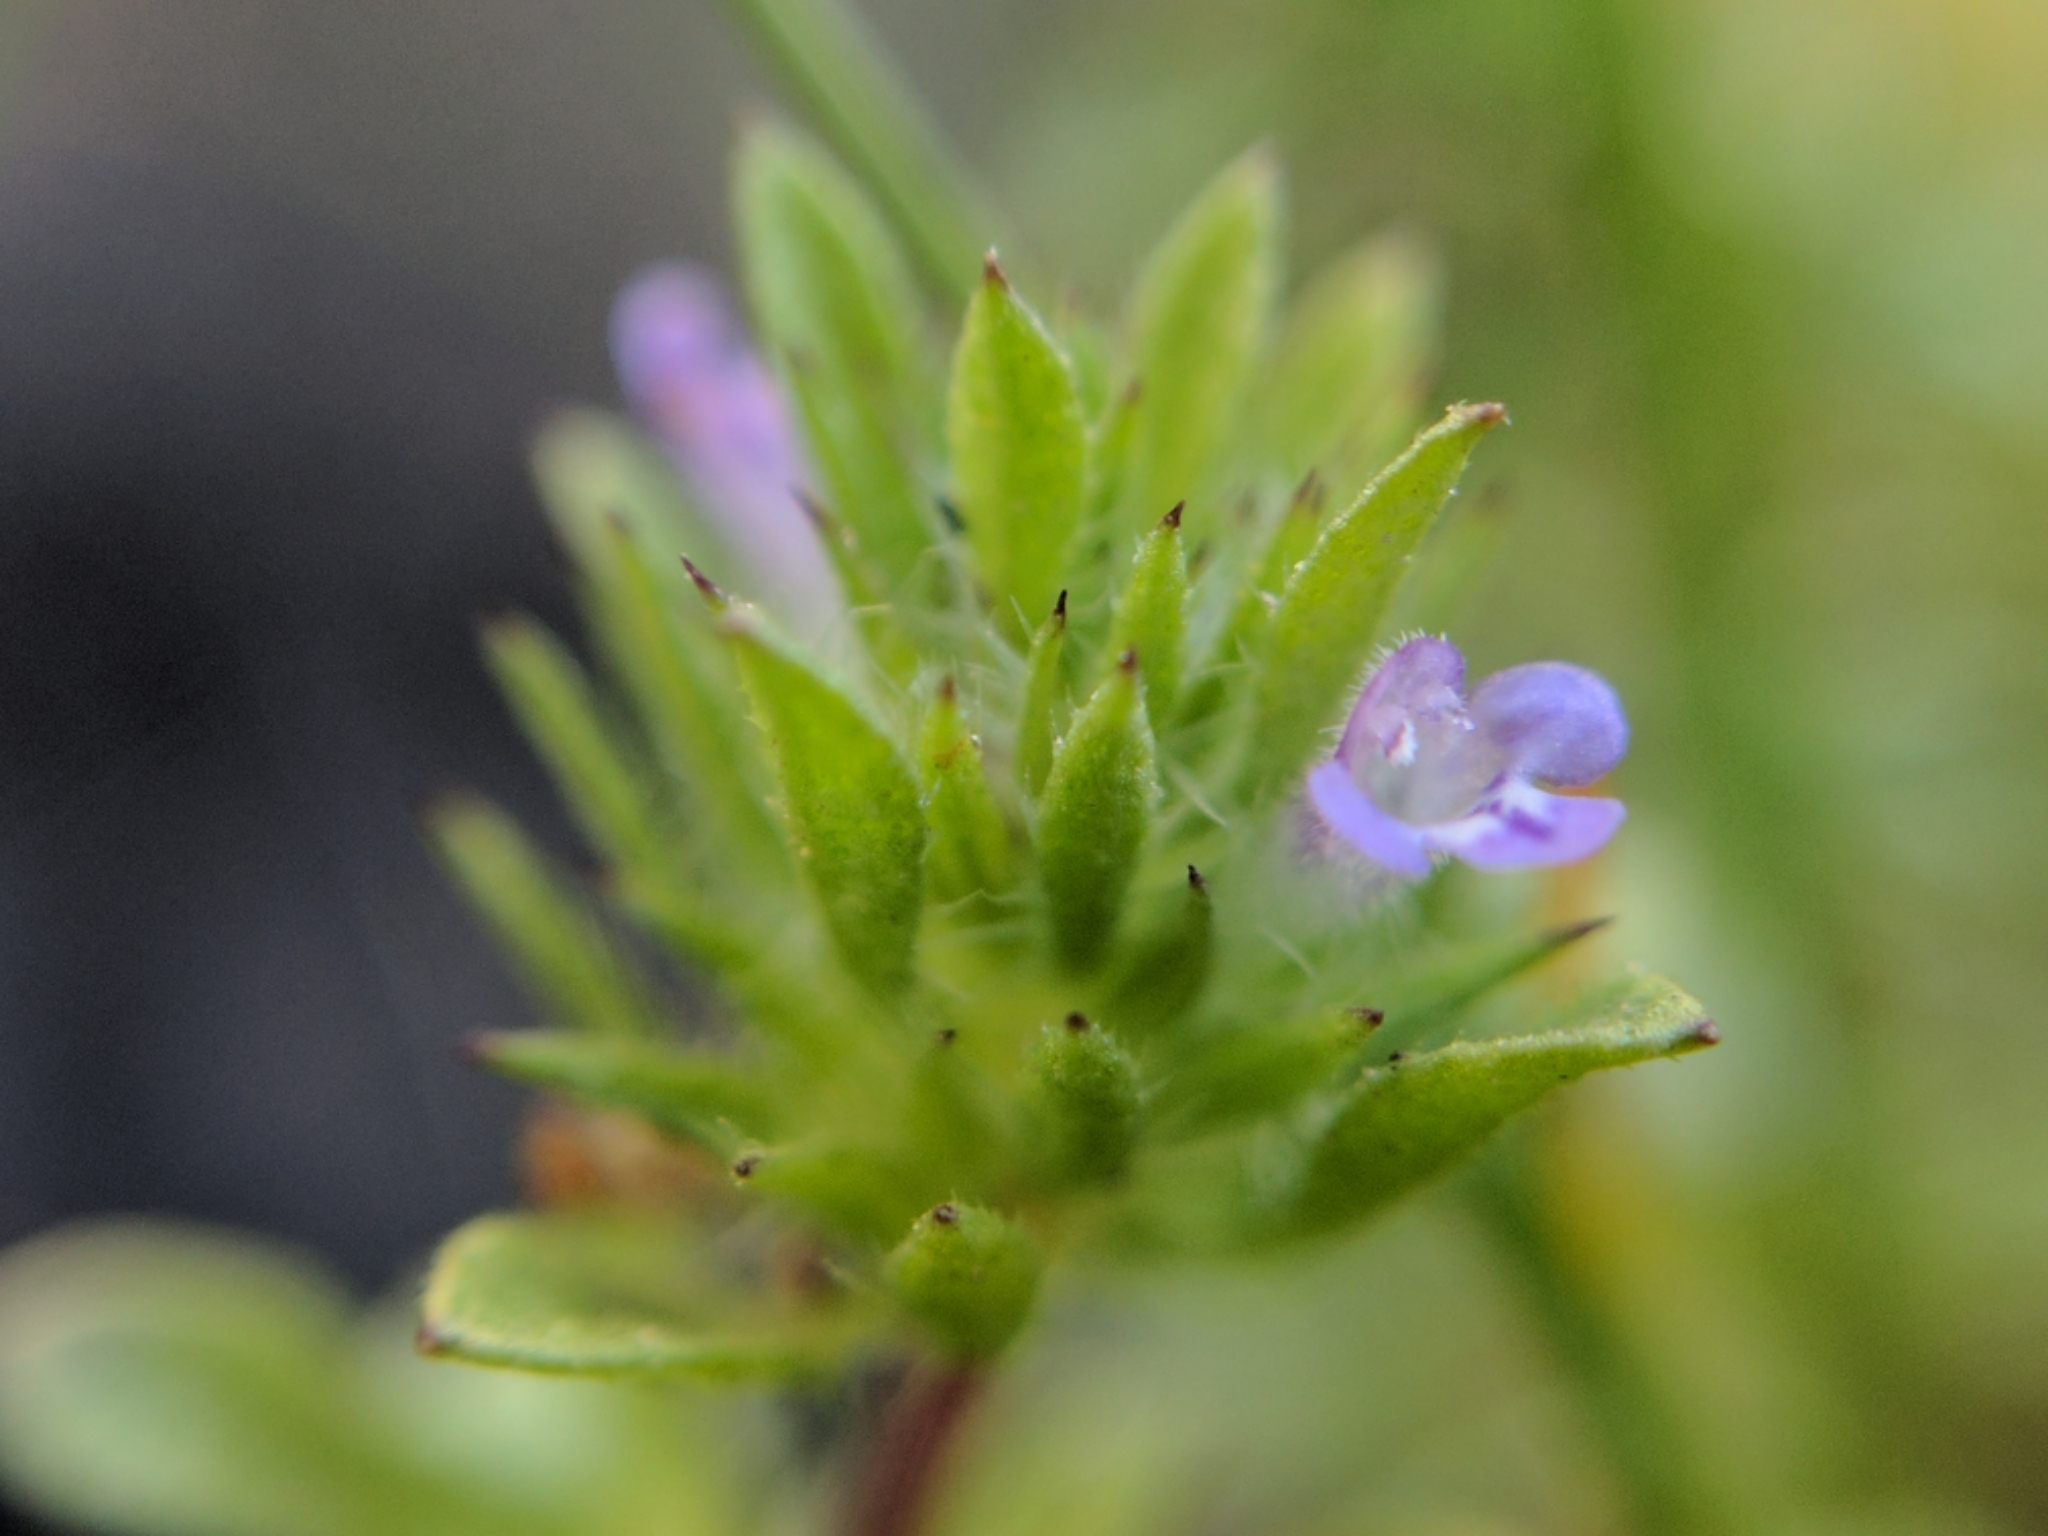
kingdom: Plantae
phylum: Tracheophyta
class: Magnoliopsida
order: Lamiales
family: Lamiaceae
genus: Pogogyne
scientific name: Pogogyne serpylloides
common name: Thymeleaf mesamint
